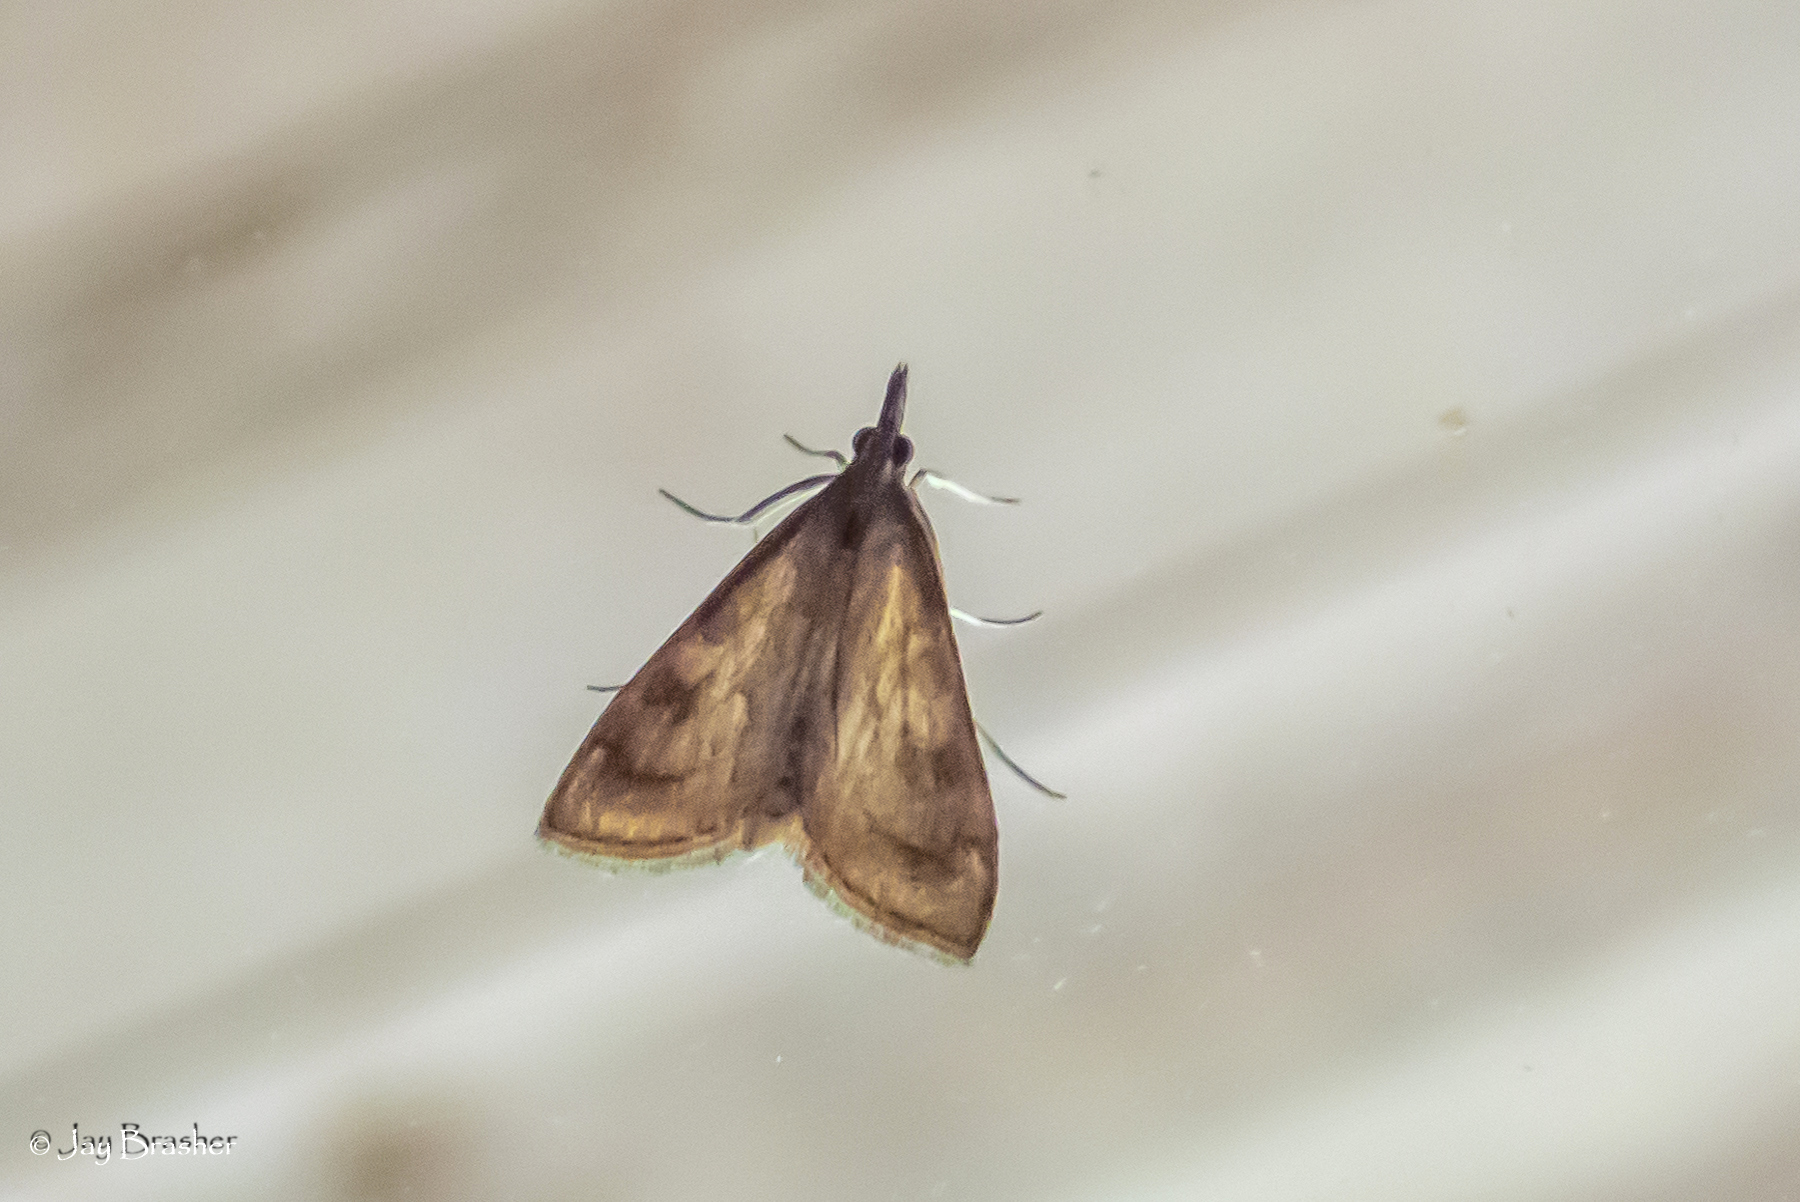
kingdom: Animalia
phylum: Arthropoda
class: Insecta
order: Lepidoptera
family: Crambidae
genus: Udea
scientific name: Udea rubigalis
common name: Celery leaftier moth
